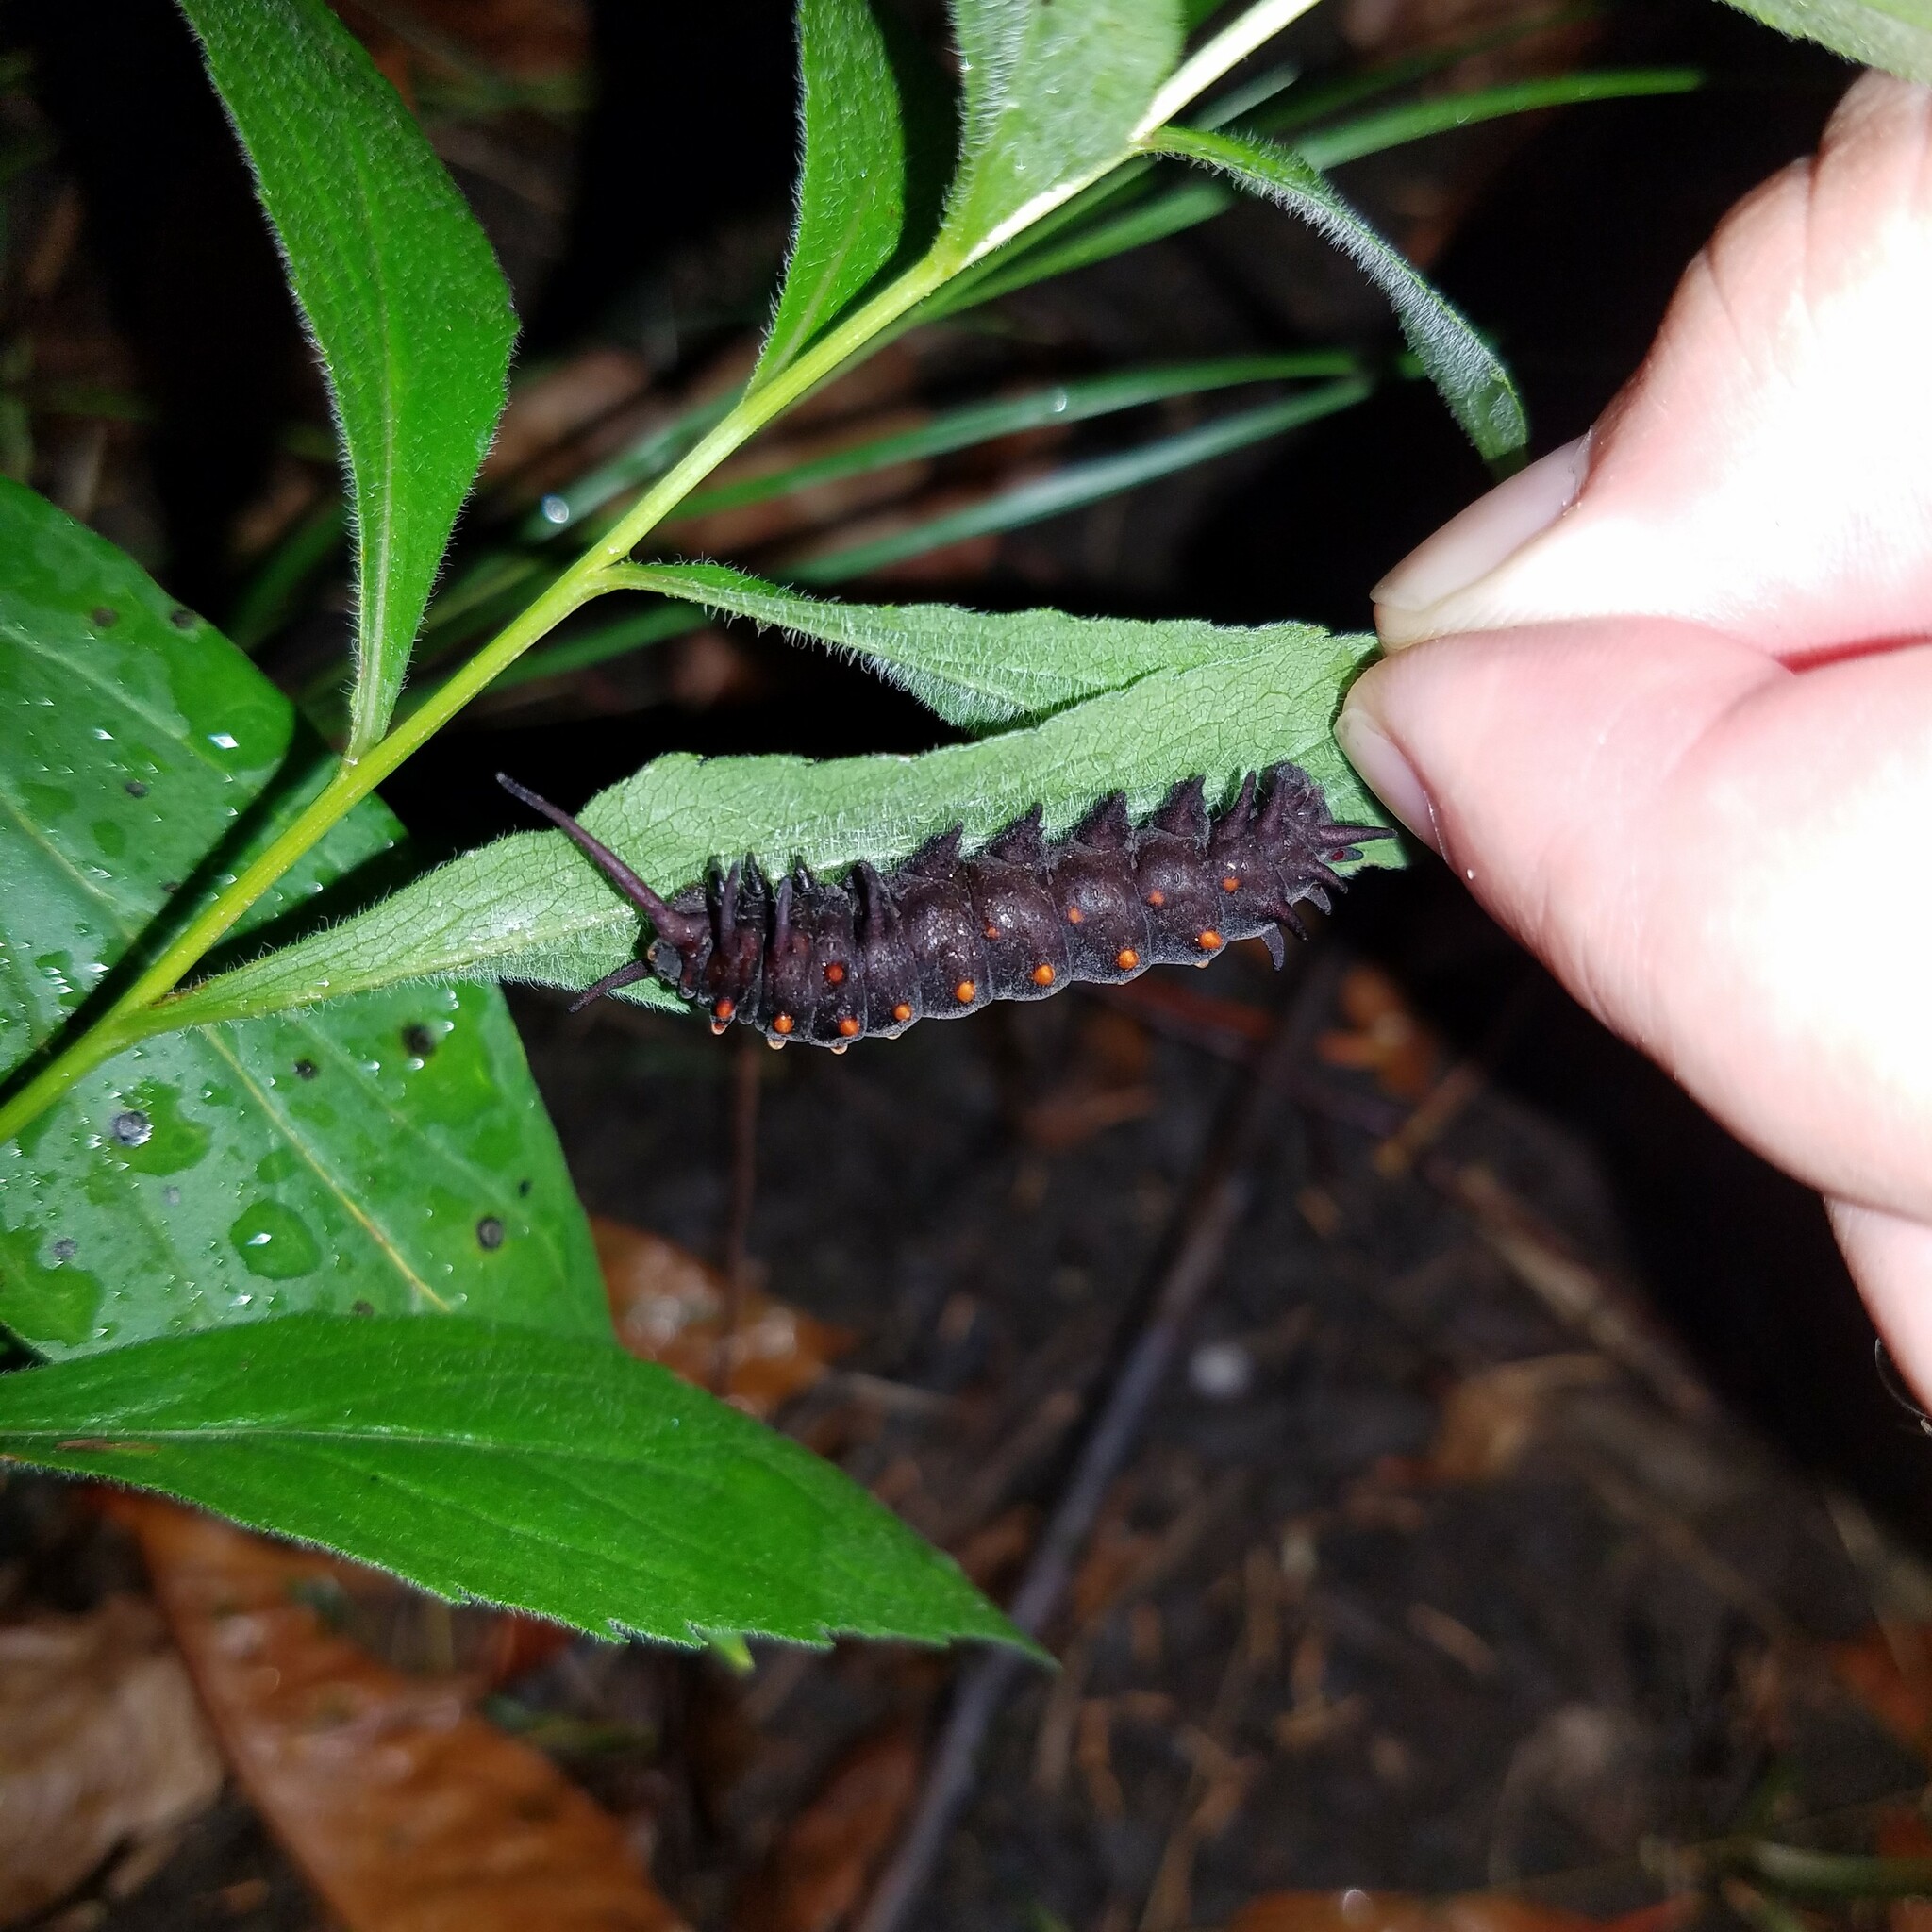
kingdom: Animalia
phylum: Arthropoda
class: Insecta
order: Lepidoptera
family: Papilionidae
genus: Battus
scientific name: Battus philenor
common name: Pipevine swallowtail
